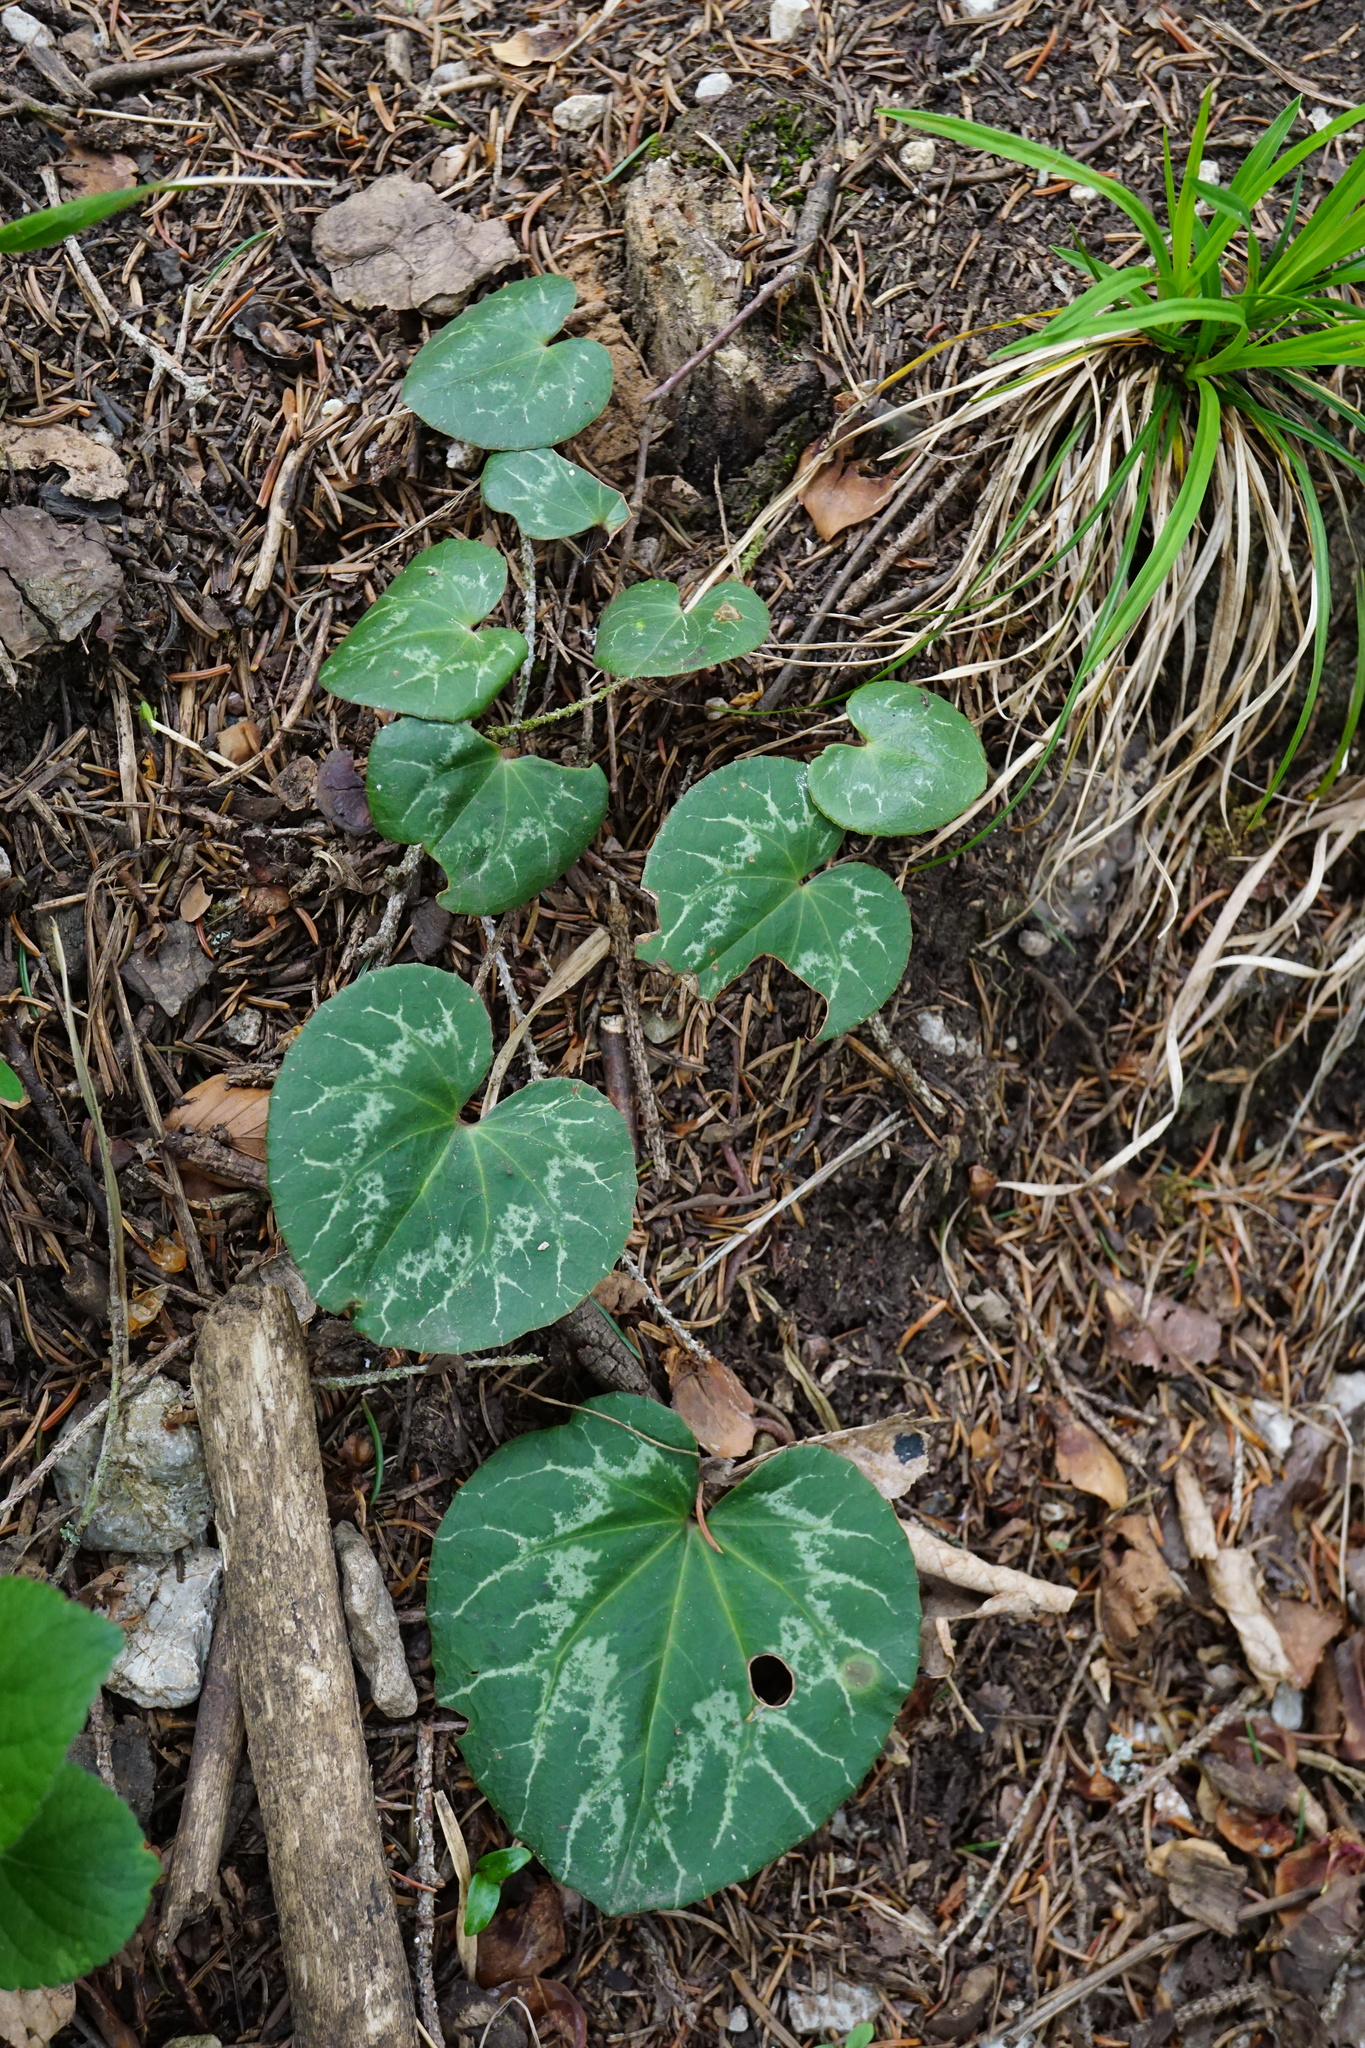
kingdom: Plantae
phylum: Tracheophyta
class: Magnoliopsida
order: Ericales
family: Primulaceae
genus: Cyclamen
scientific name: Cyclamen purpurascens
